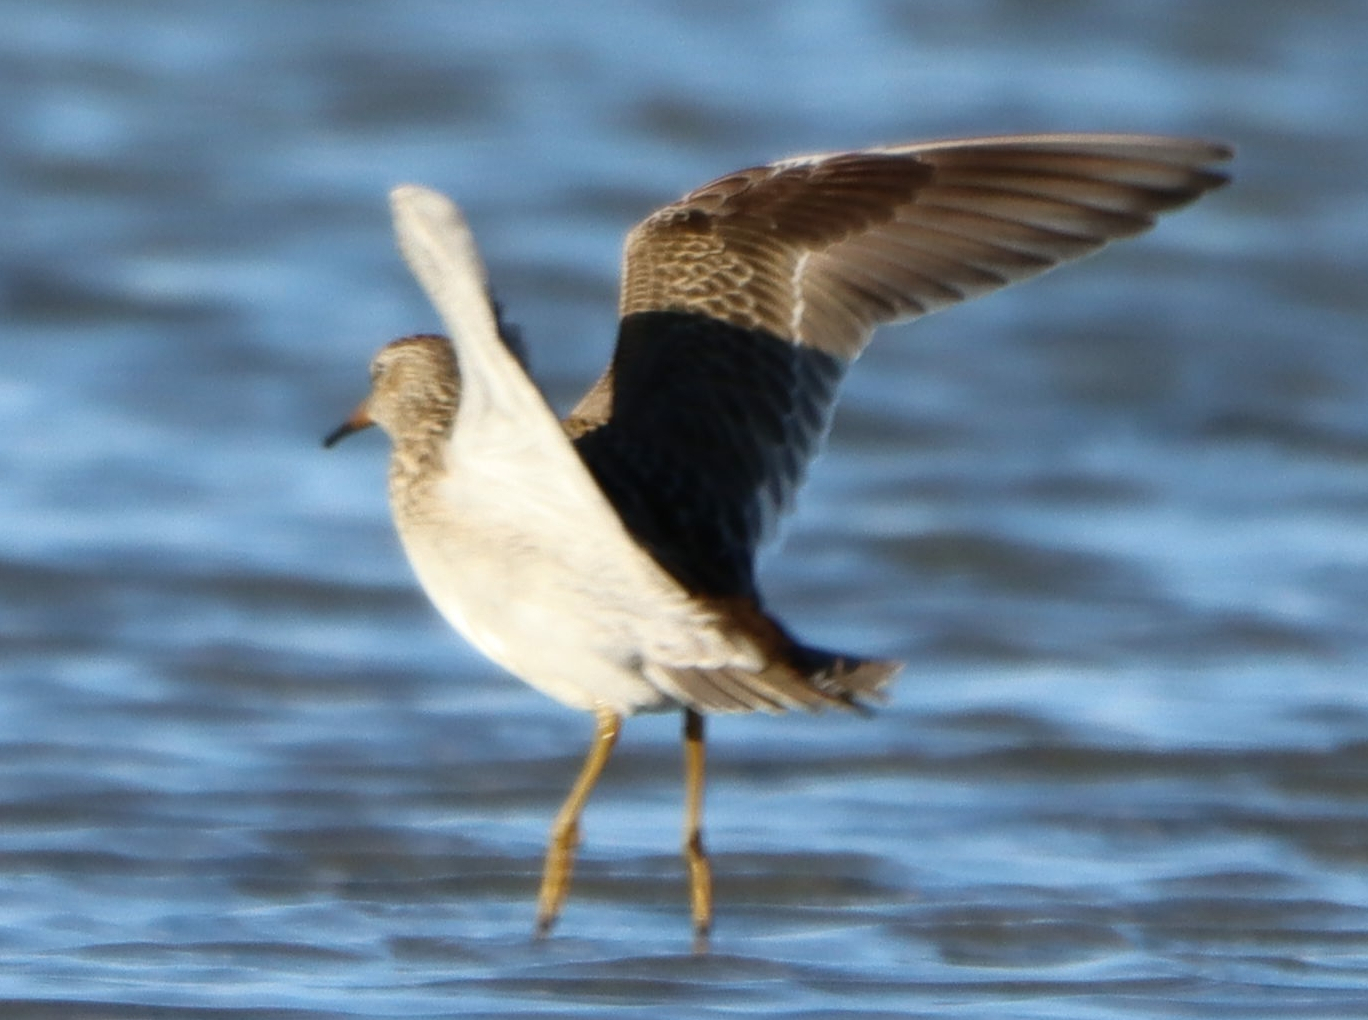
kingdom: Animalia
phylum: Chordata
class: Aves
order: Charadriiformes
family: Scolopacidae
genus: Calidris
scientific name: Calidris melanotos
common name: Pectoral sandpiper
